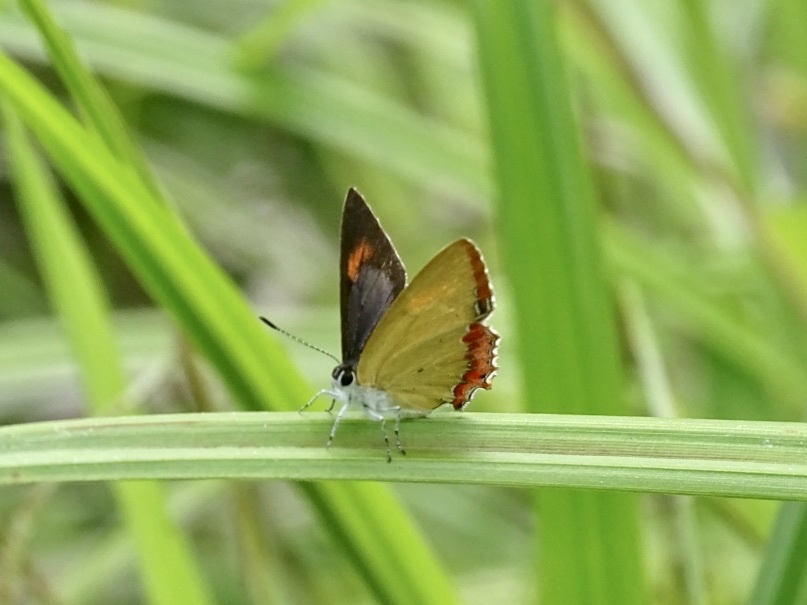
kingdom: Animalia
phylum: Arthropoda
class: Insecta
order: Lepidoptera
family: Lycaenidae
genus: Heliophorus
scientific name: Heliophorus epicles
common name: Purple sapphire
